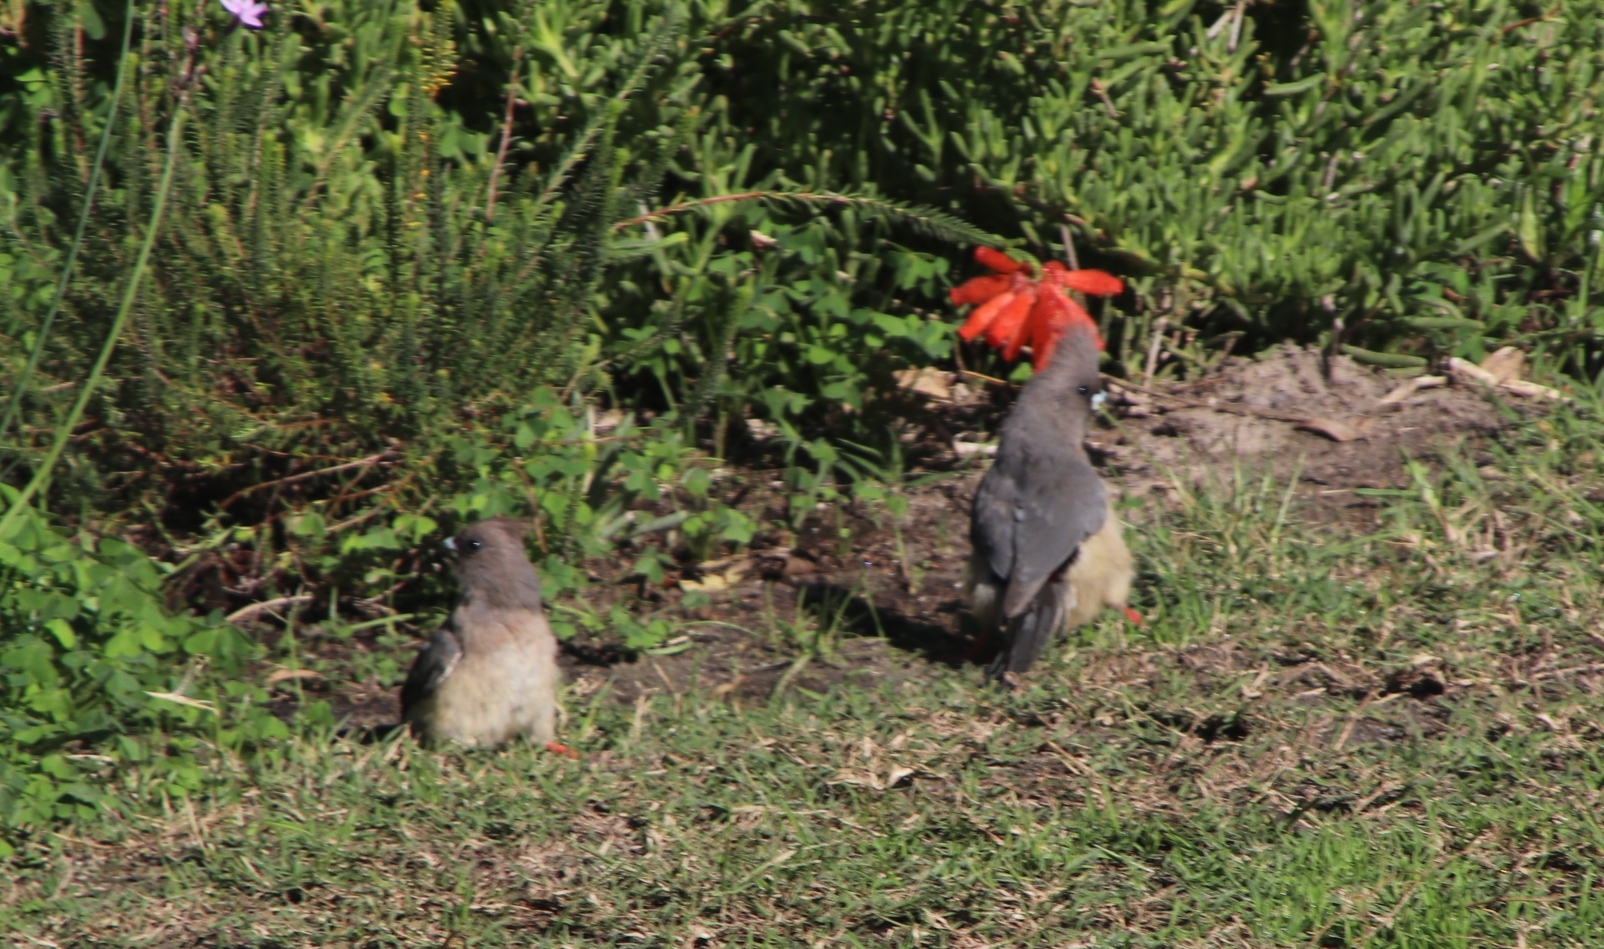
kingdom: Animalia
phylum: Chordata
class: Aves
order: Coliiformes
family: Coliidae
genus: Colius
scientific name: Colius colius
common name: White-backed mousebird
